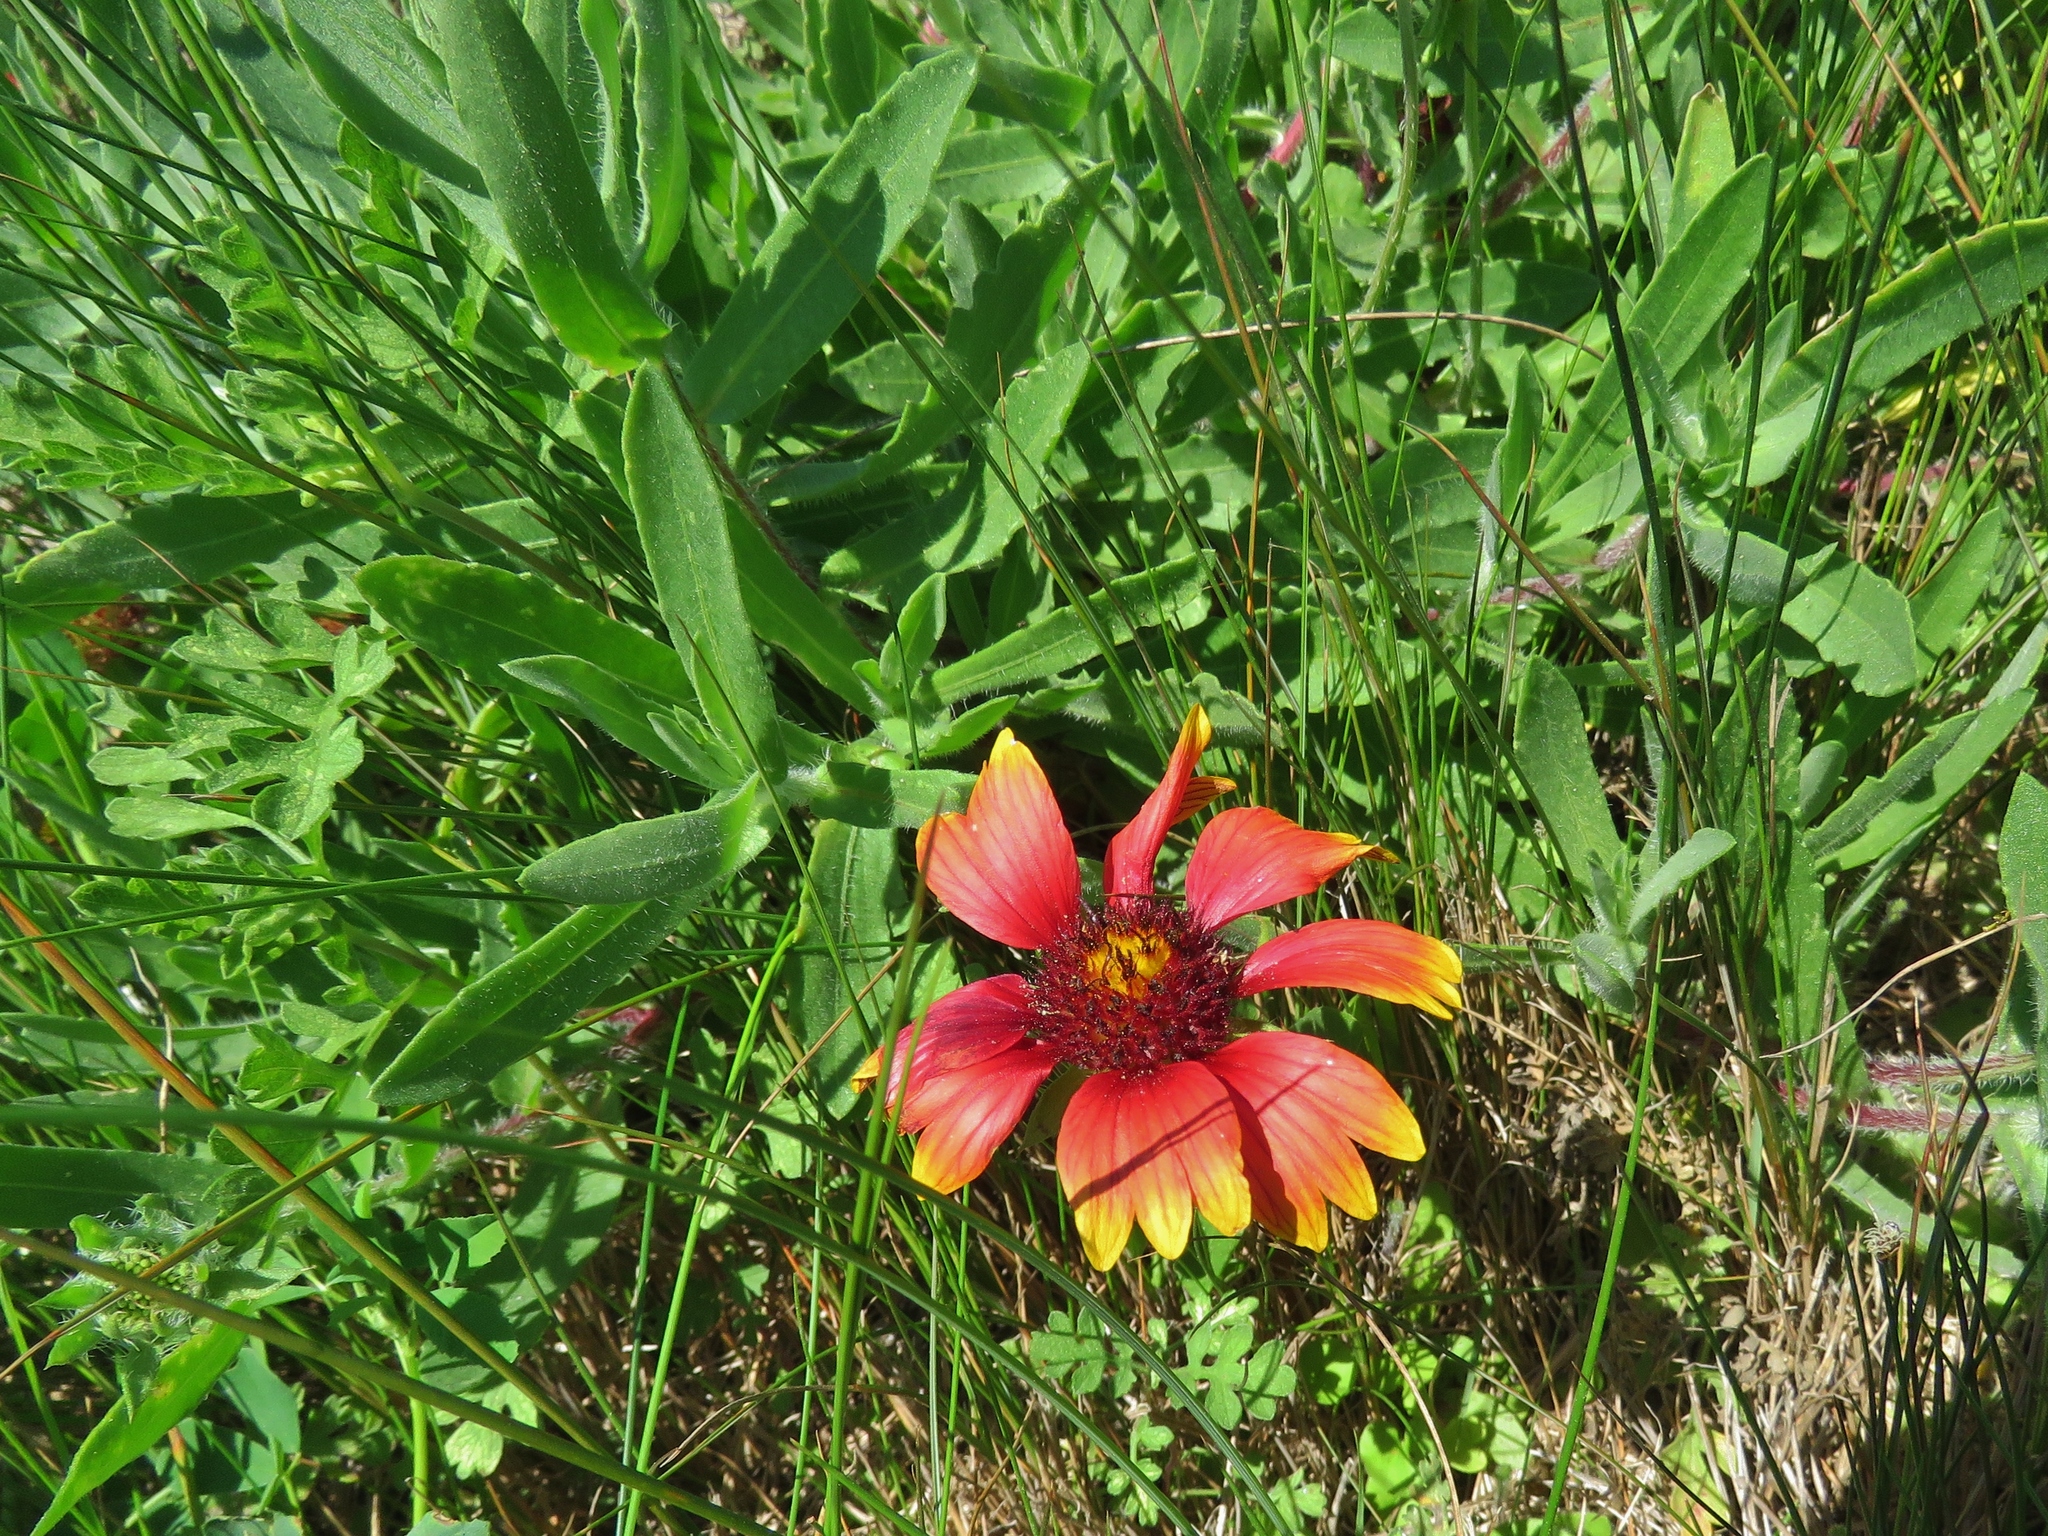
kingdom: Plantae
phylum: Tracheophyta
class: Magnoliopsida
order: Asterales
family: Asteraceae
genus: Gaillardia
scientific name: Gaillardia pulchella
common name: Firewheel
